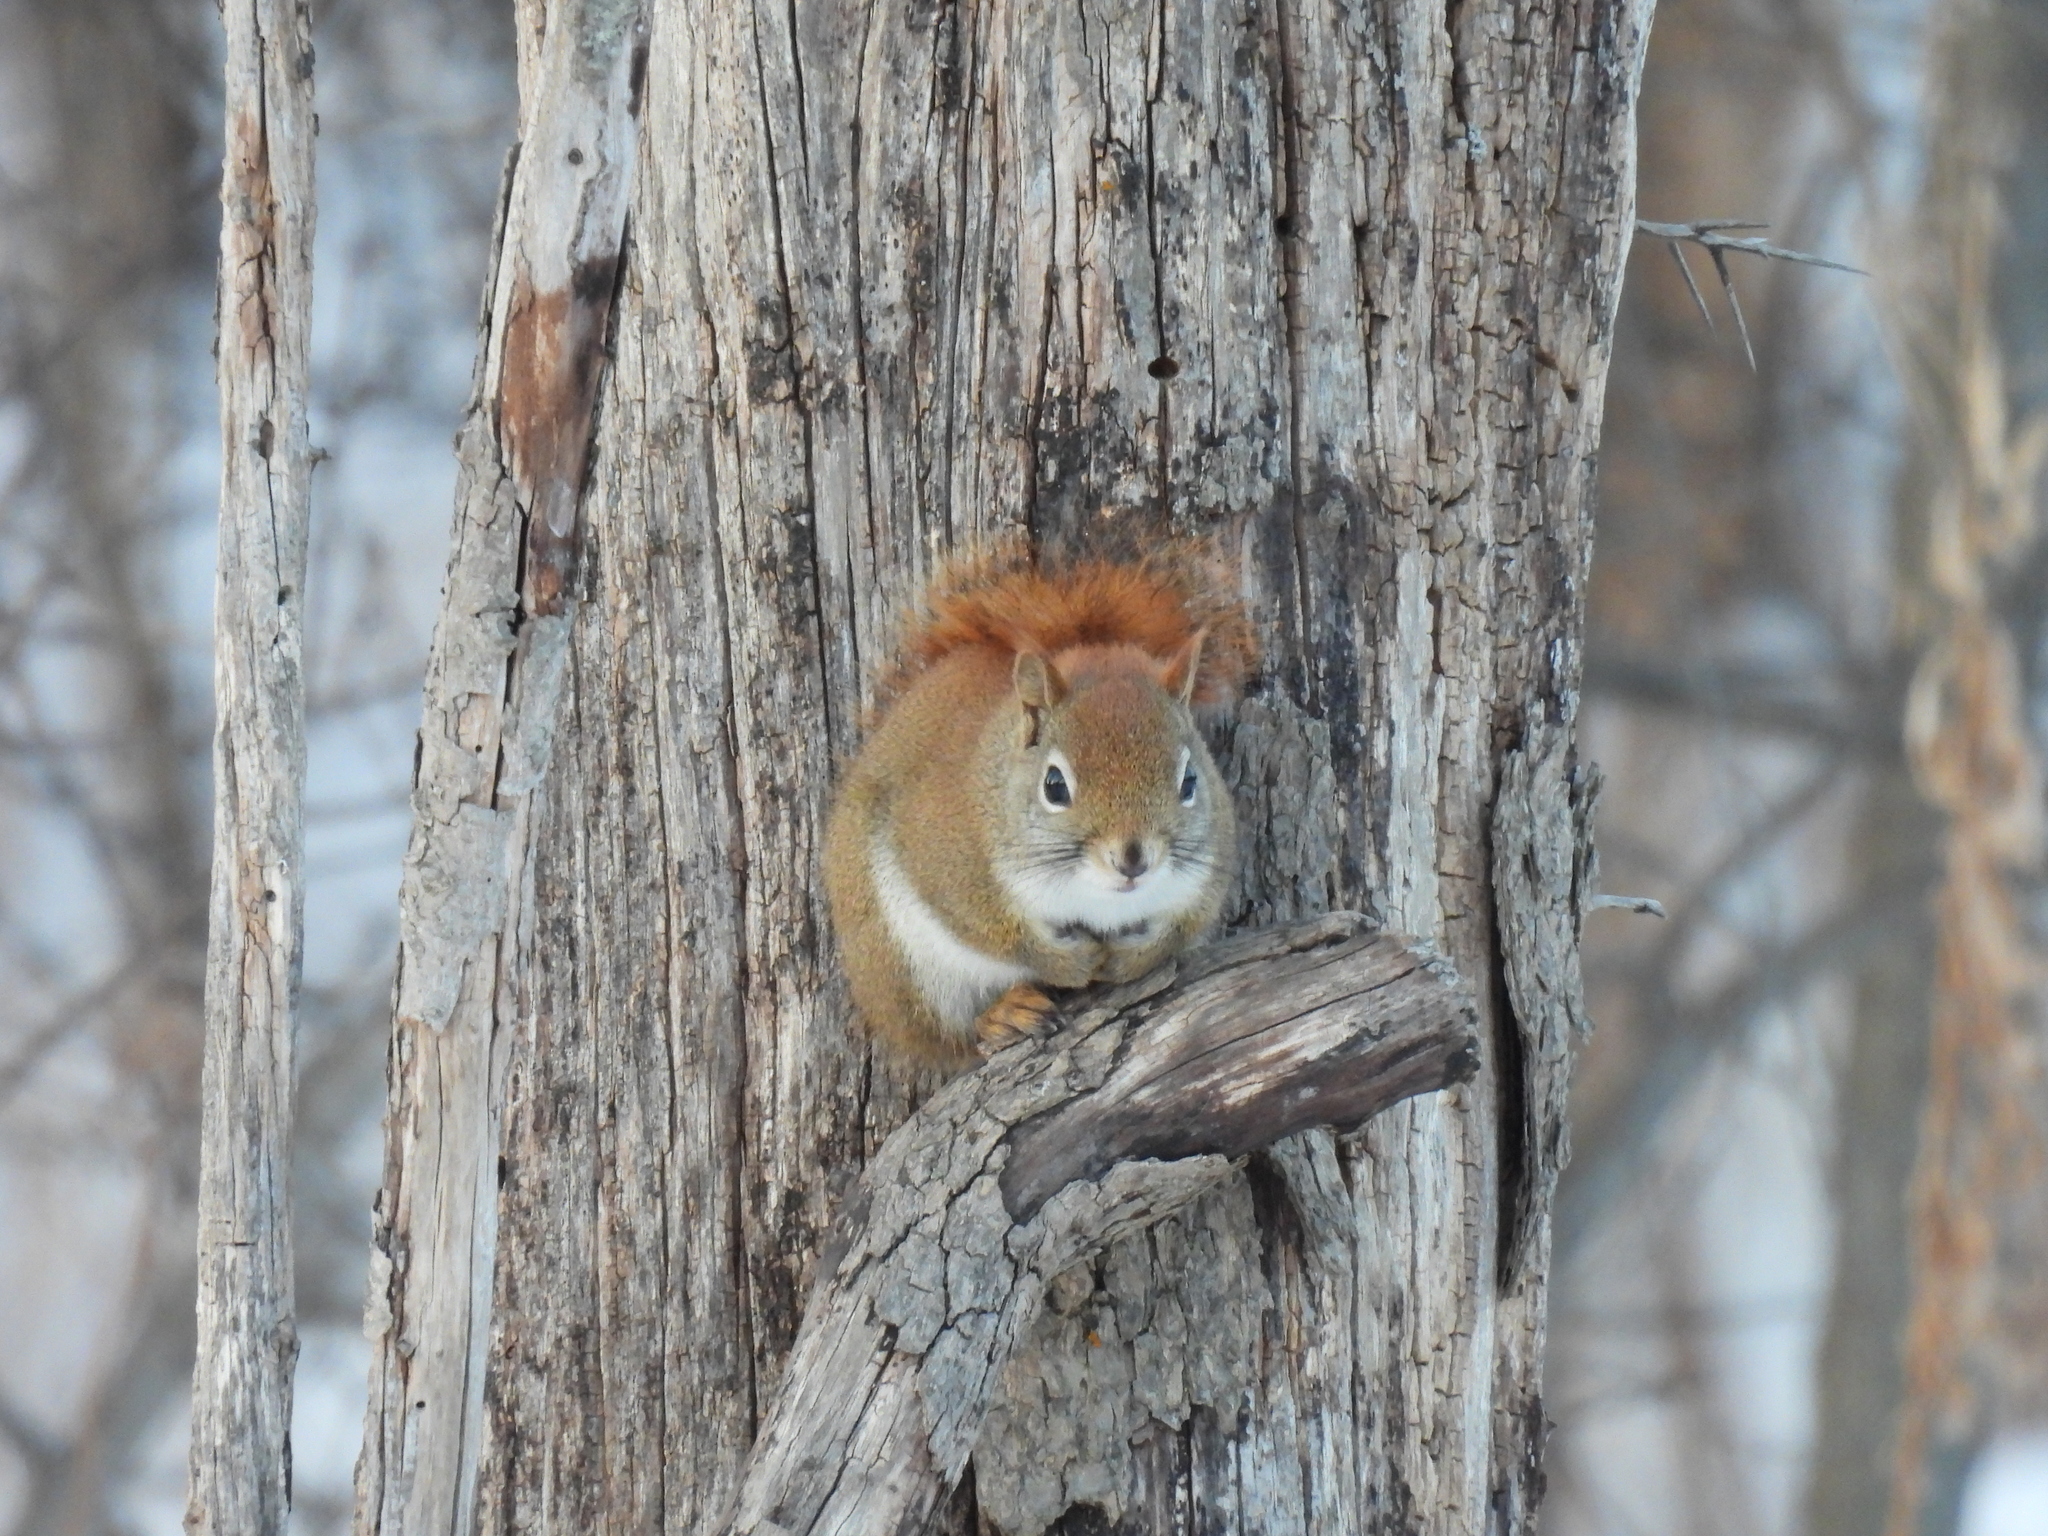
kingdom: Animalia
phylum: Chordata
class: Mammalia
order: Rodentia
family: Sciuridae
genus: Tamiasciurus
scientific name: Tamiasciurus hudsonicus
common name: Red squirrel
